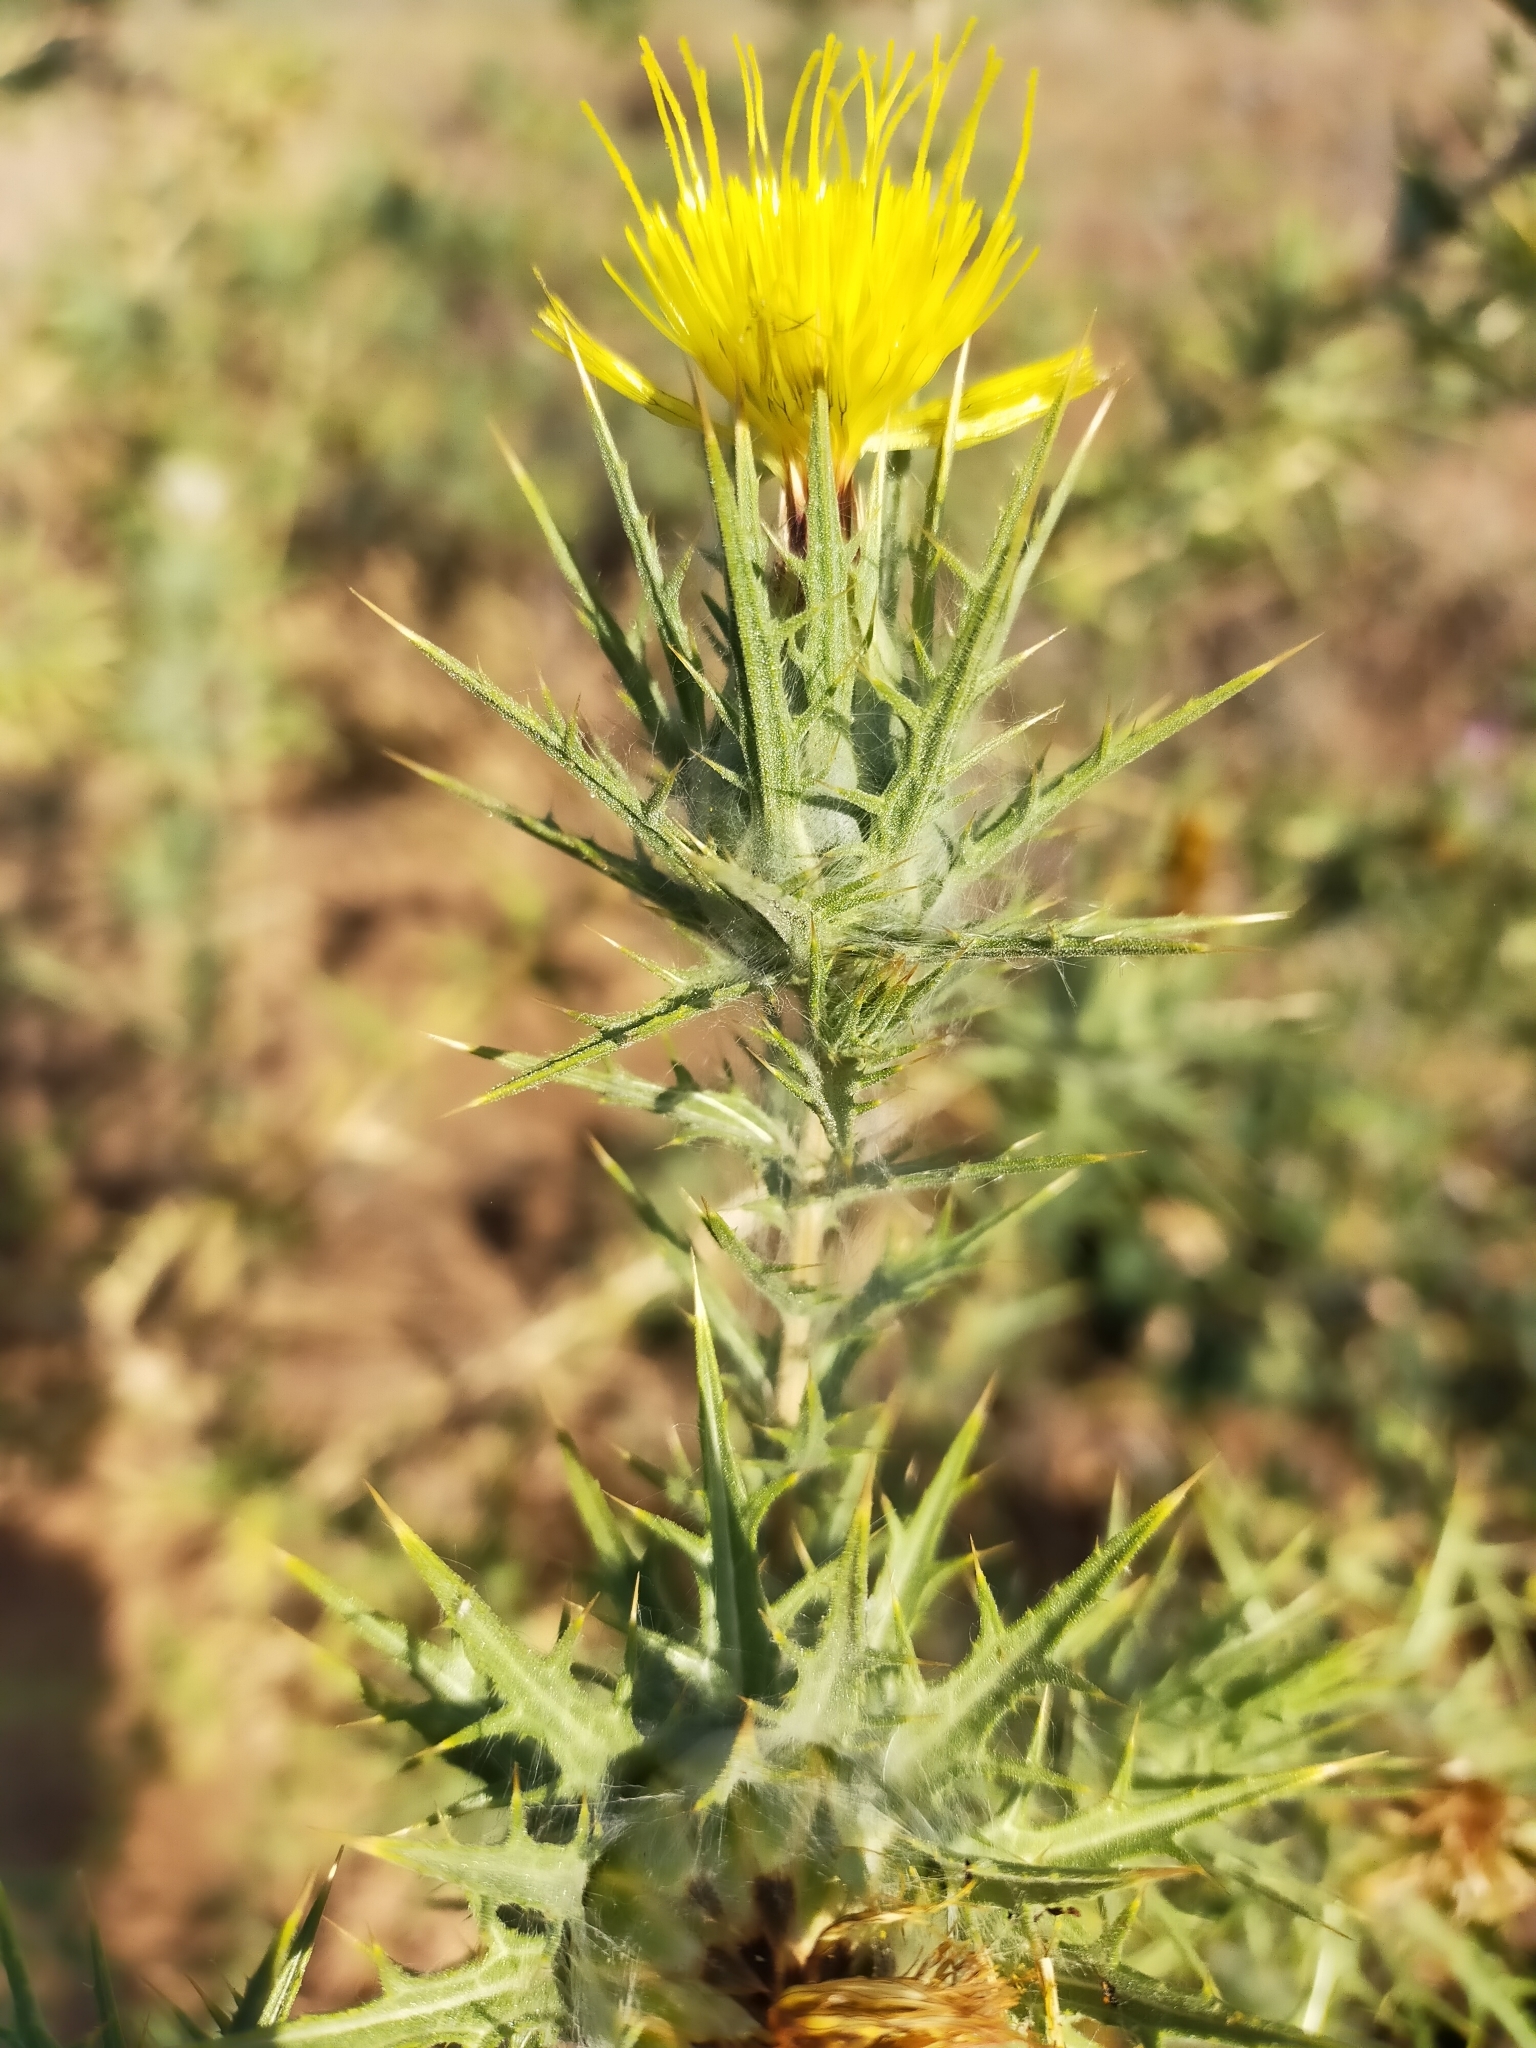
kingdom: Plantae
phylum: Tracheophyta
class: Magnoliopsida
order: Asterales
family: Asteraceae
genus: Carthamus
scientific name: Carthamus lanatus
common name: Downy safflower
